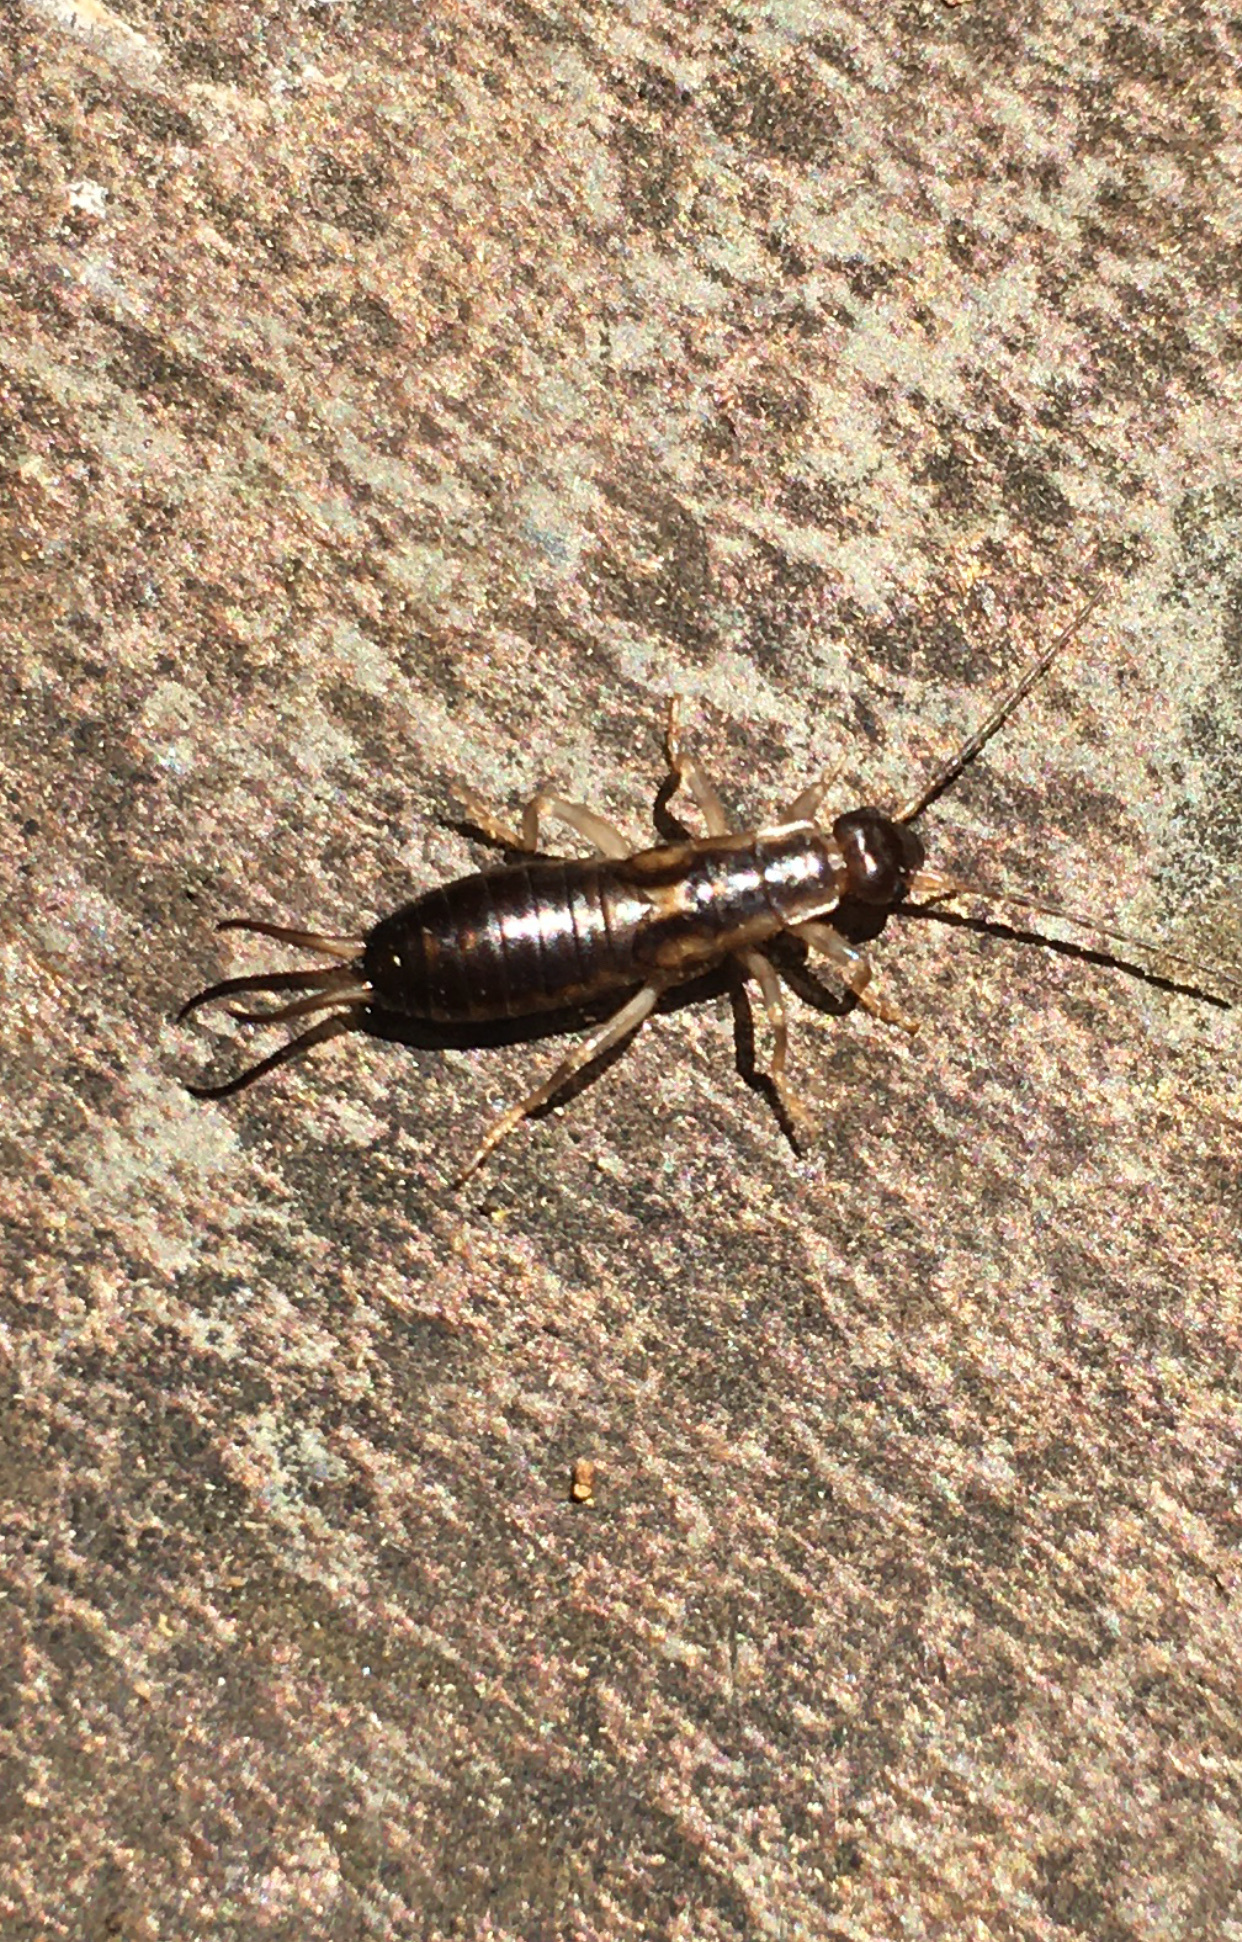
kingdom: Animalia
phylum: Arthropoda
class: Insecta
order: Dermaptera
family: Forficulidae
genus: Forficula
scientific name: Forficula
